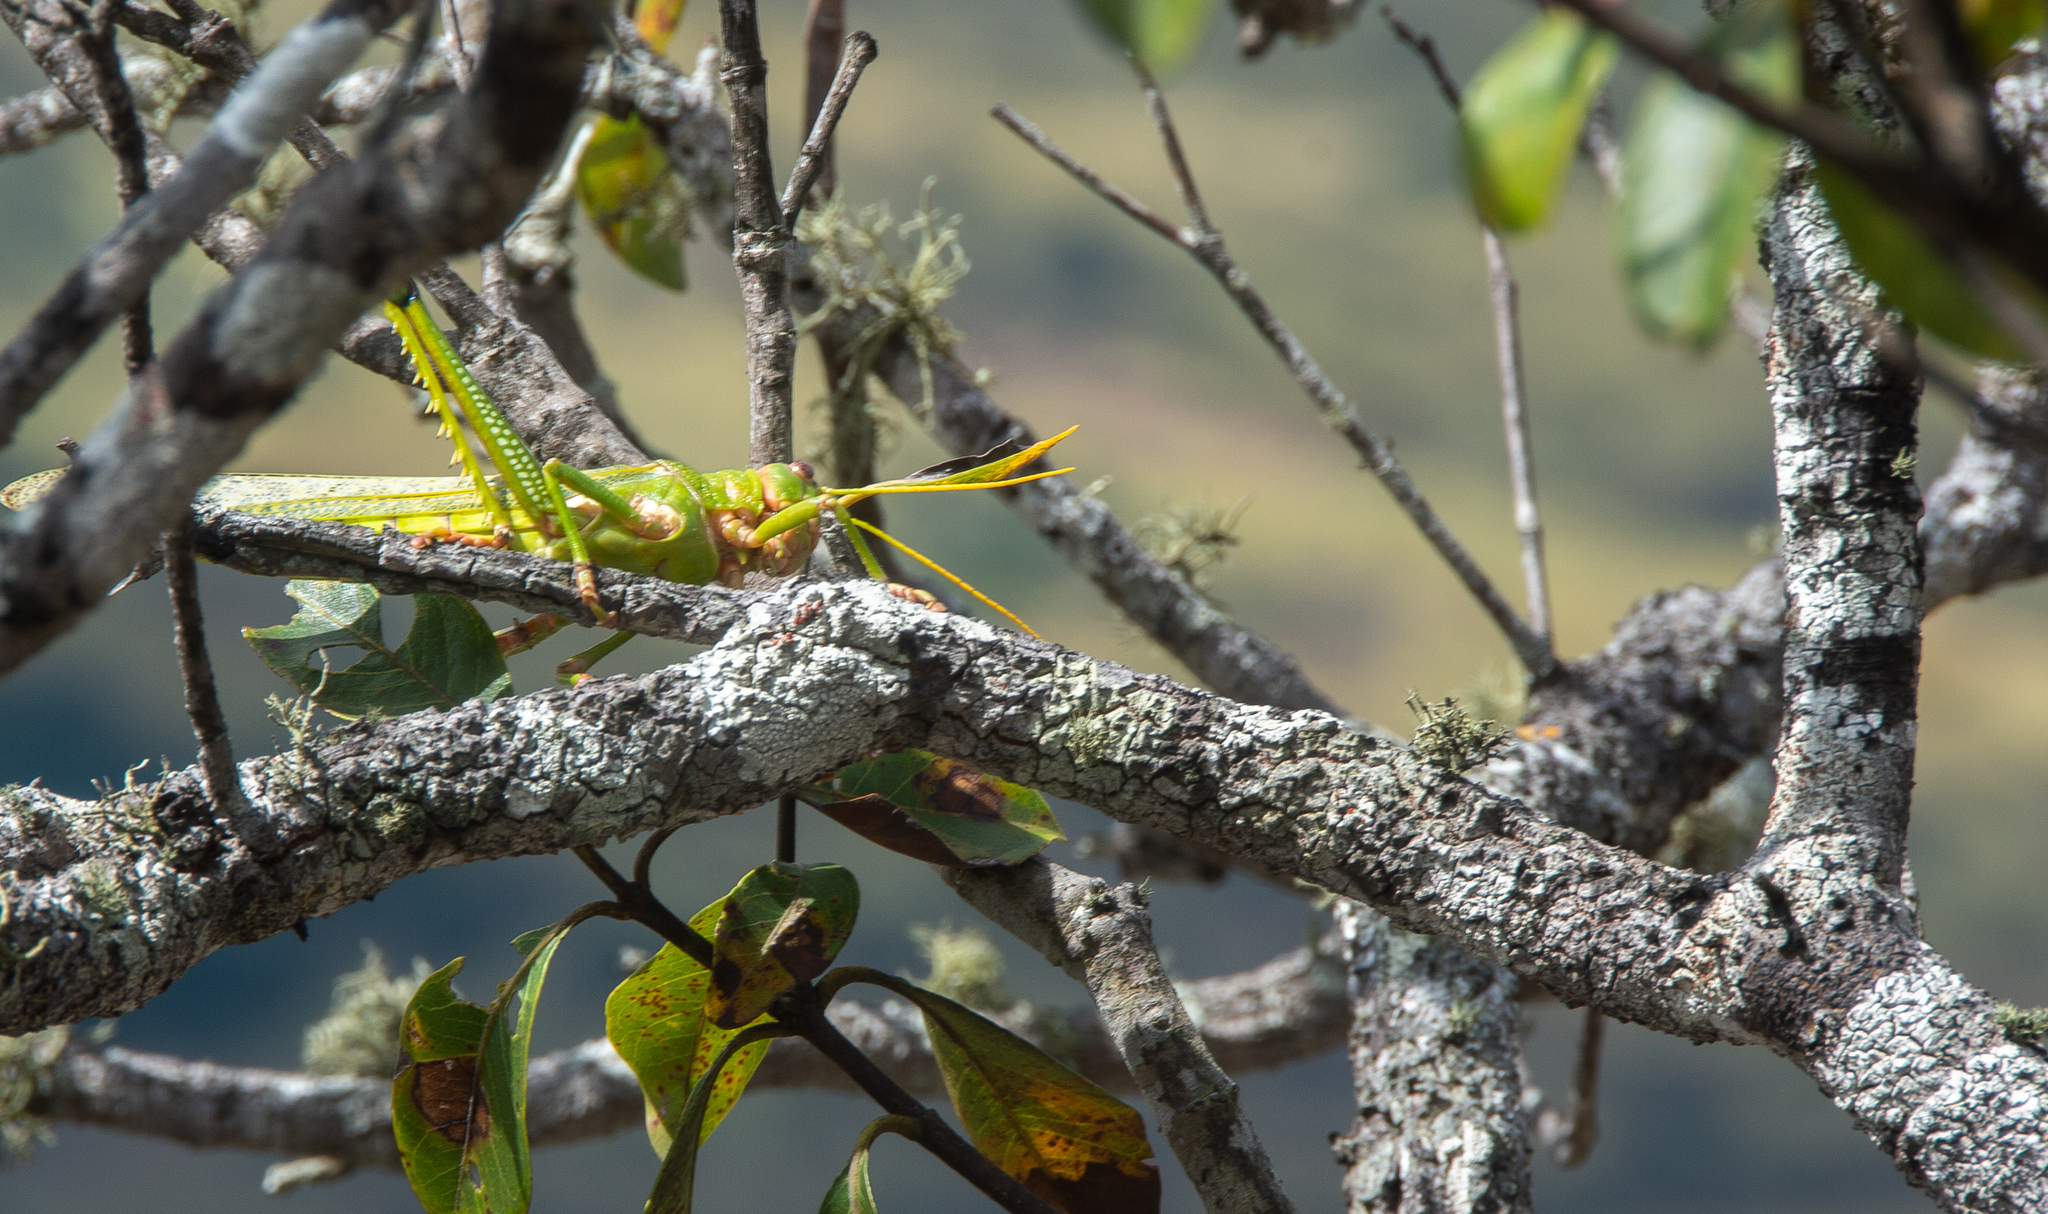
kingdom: Animalia
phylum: Arthropoda
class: Insecta
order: Orthoptera
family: Romaleidae
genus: Tropidacris
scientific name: Tropidacris collaris
